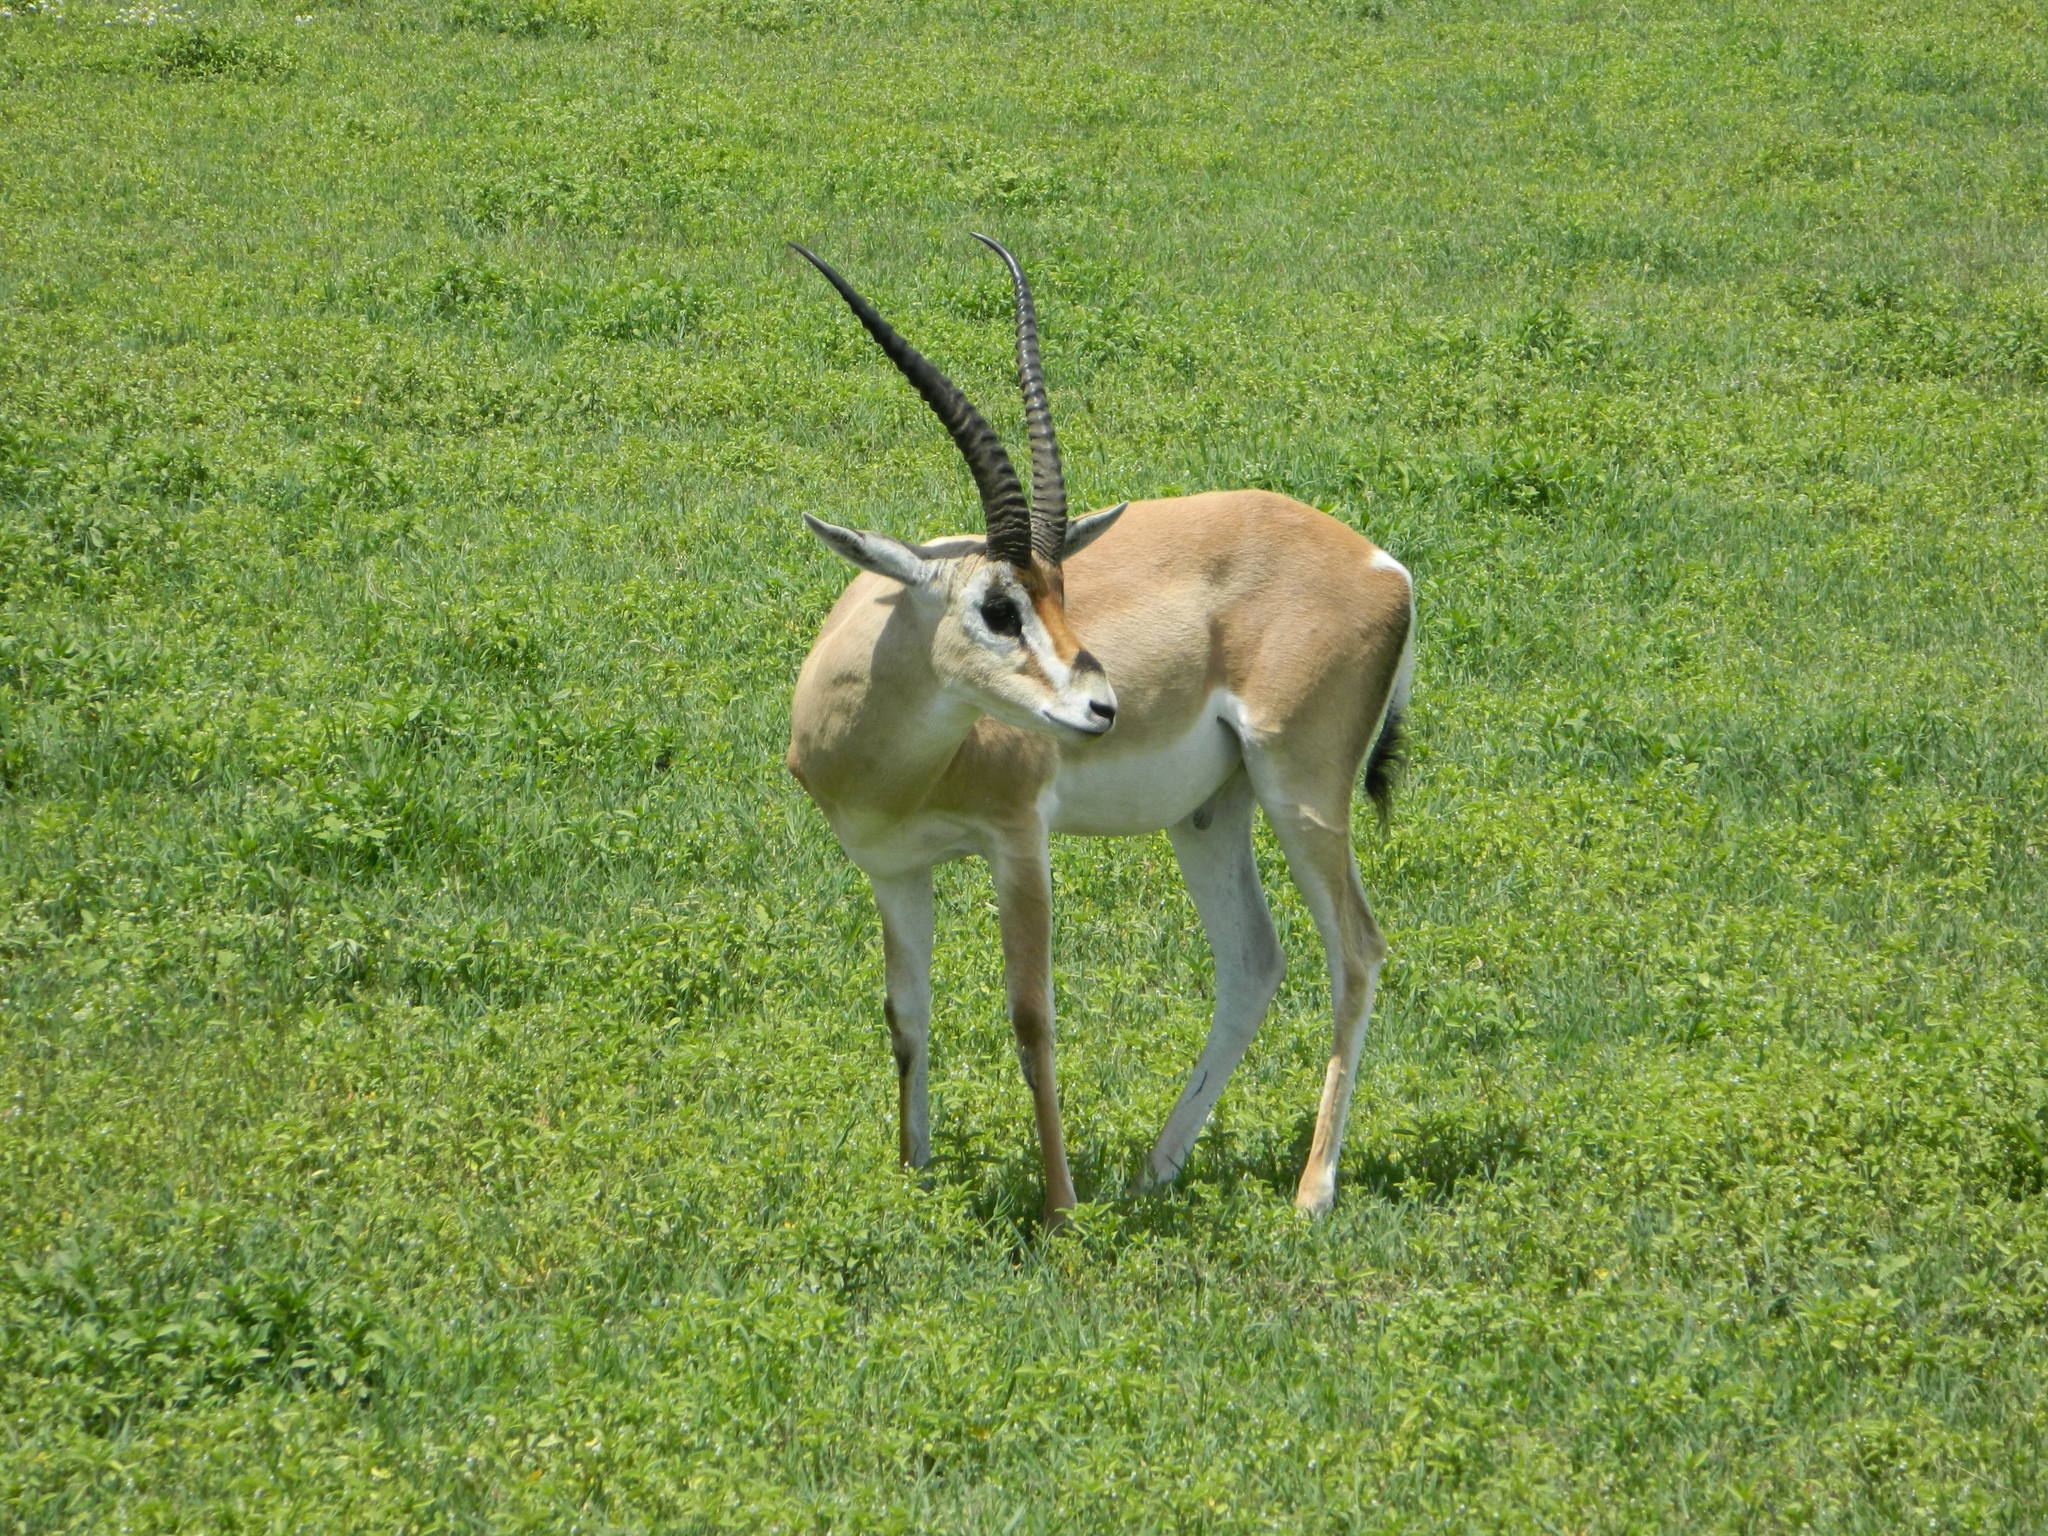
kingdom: Animalia
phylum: Chordata
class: Mammalia
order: Artiodactyla
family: Bovidae
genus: Nanger
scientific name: Nanger granti
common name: Grant's gazelle
